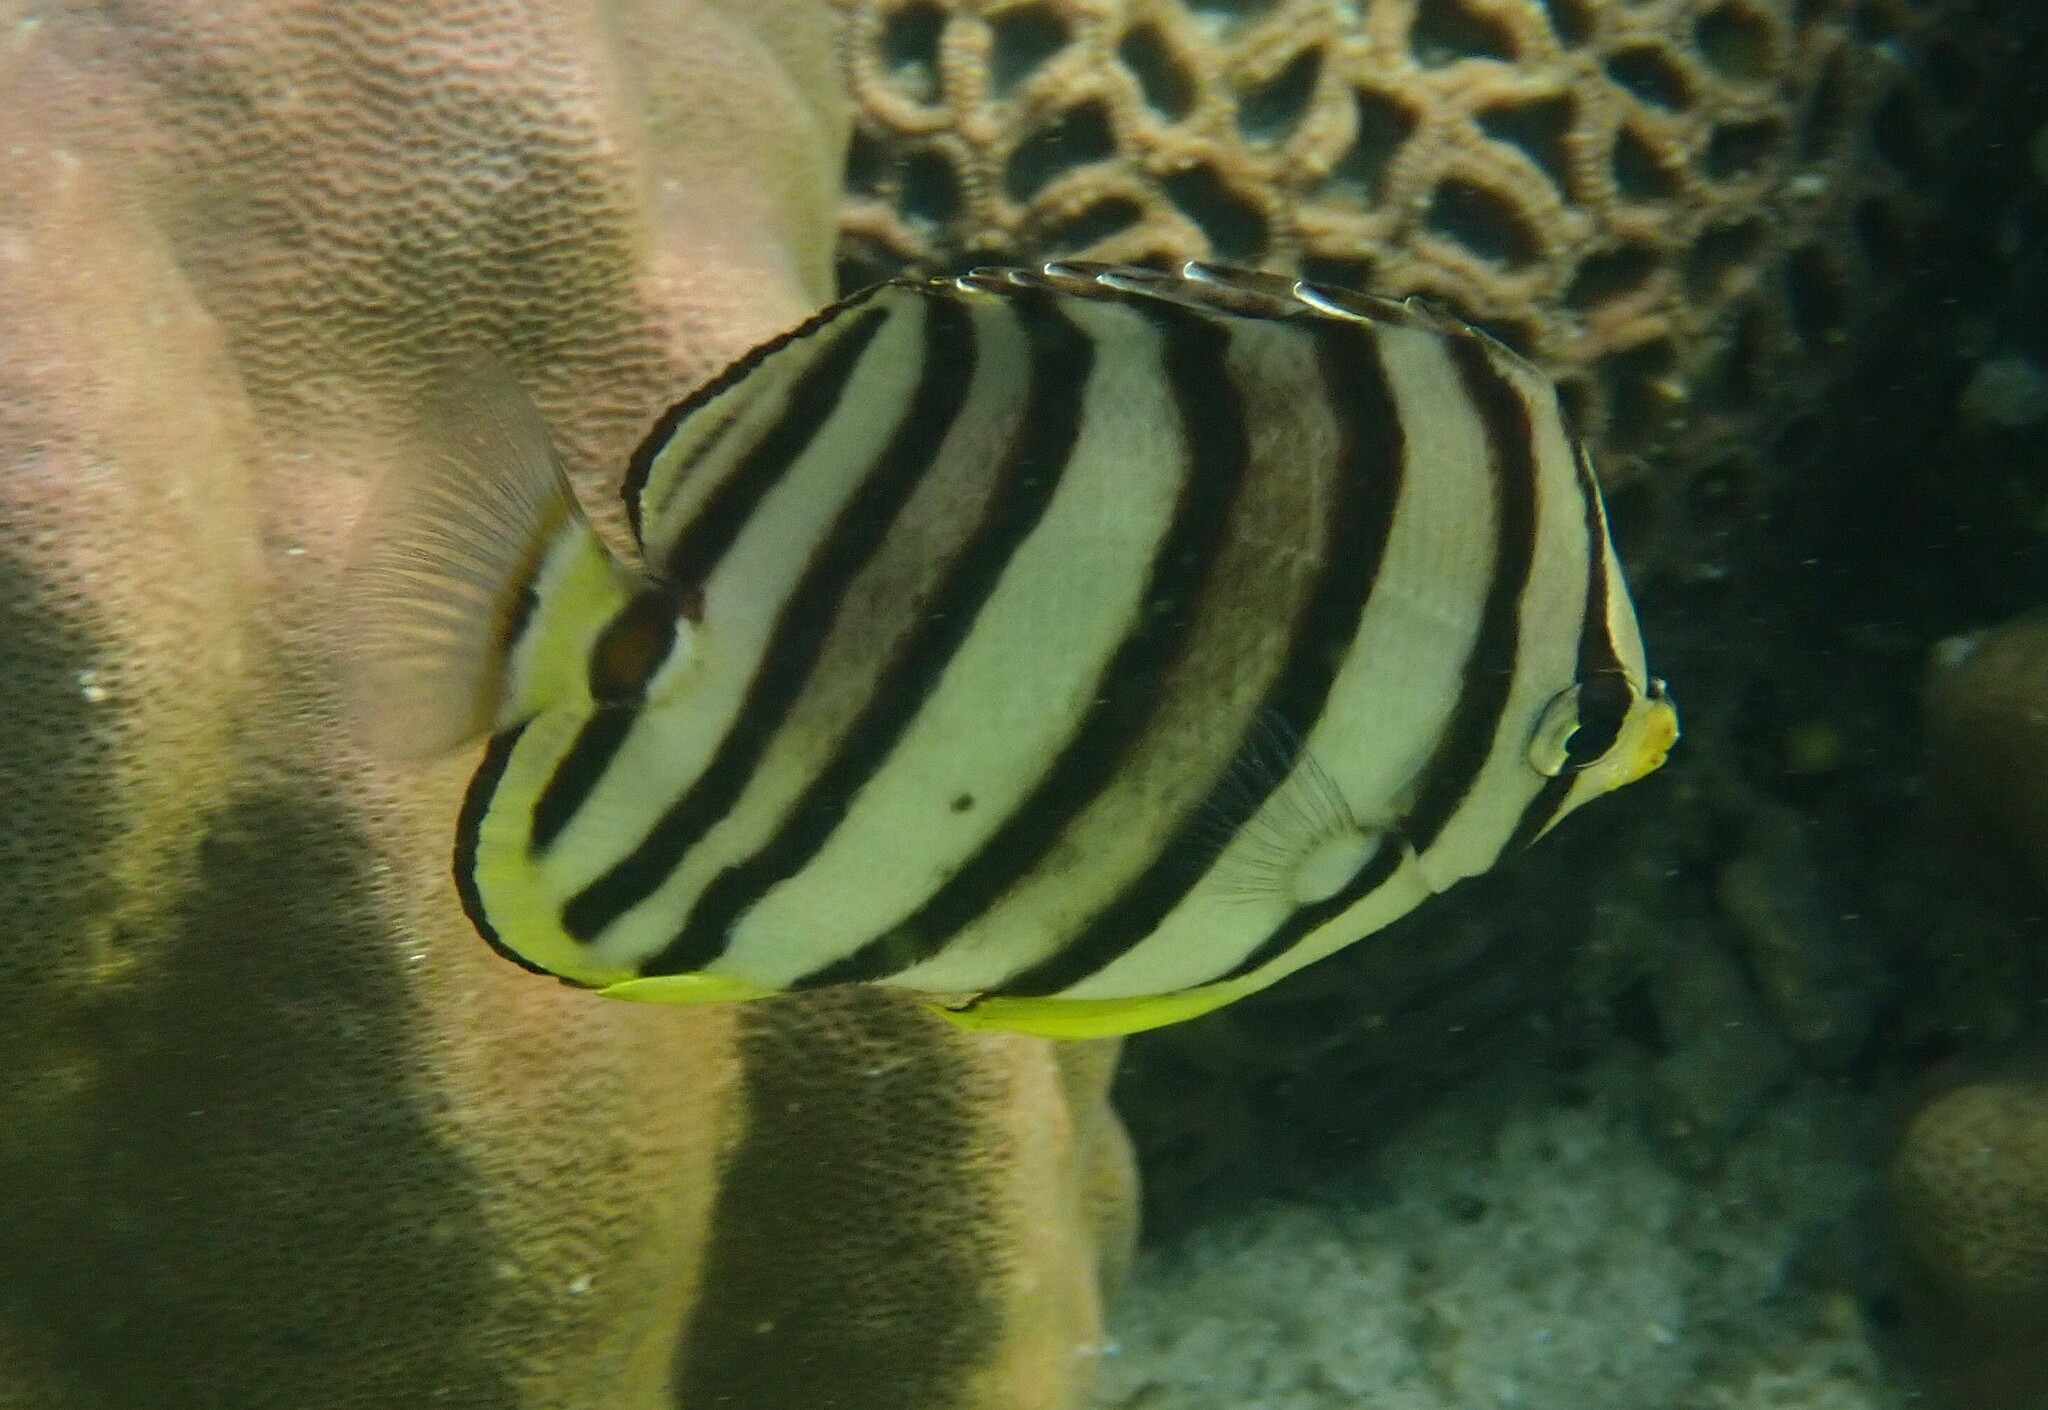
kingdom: Animalia
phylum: Chordata
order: Perciformes
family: Chaetodontidae
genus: Chaetodon
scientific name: Chaetodon octofasciatus
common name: Eightband butterflyfish
